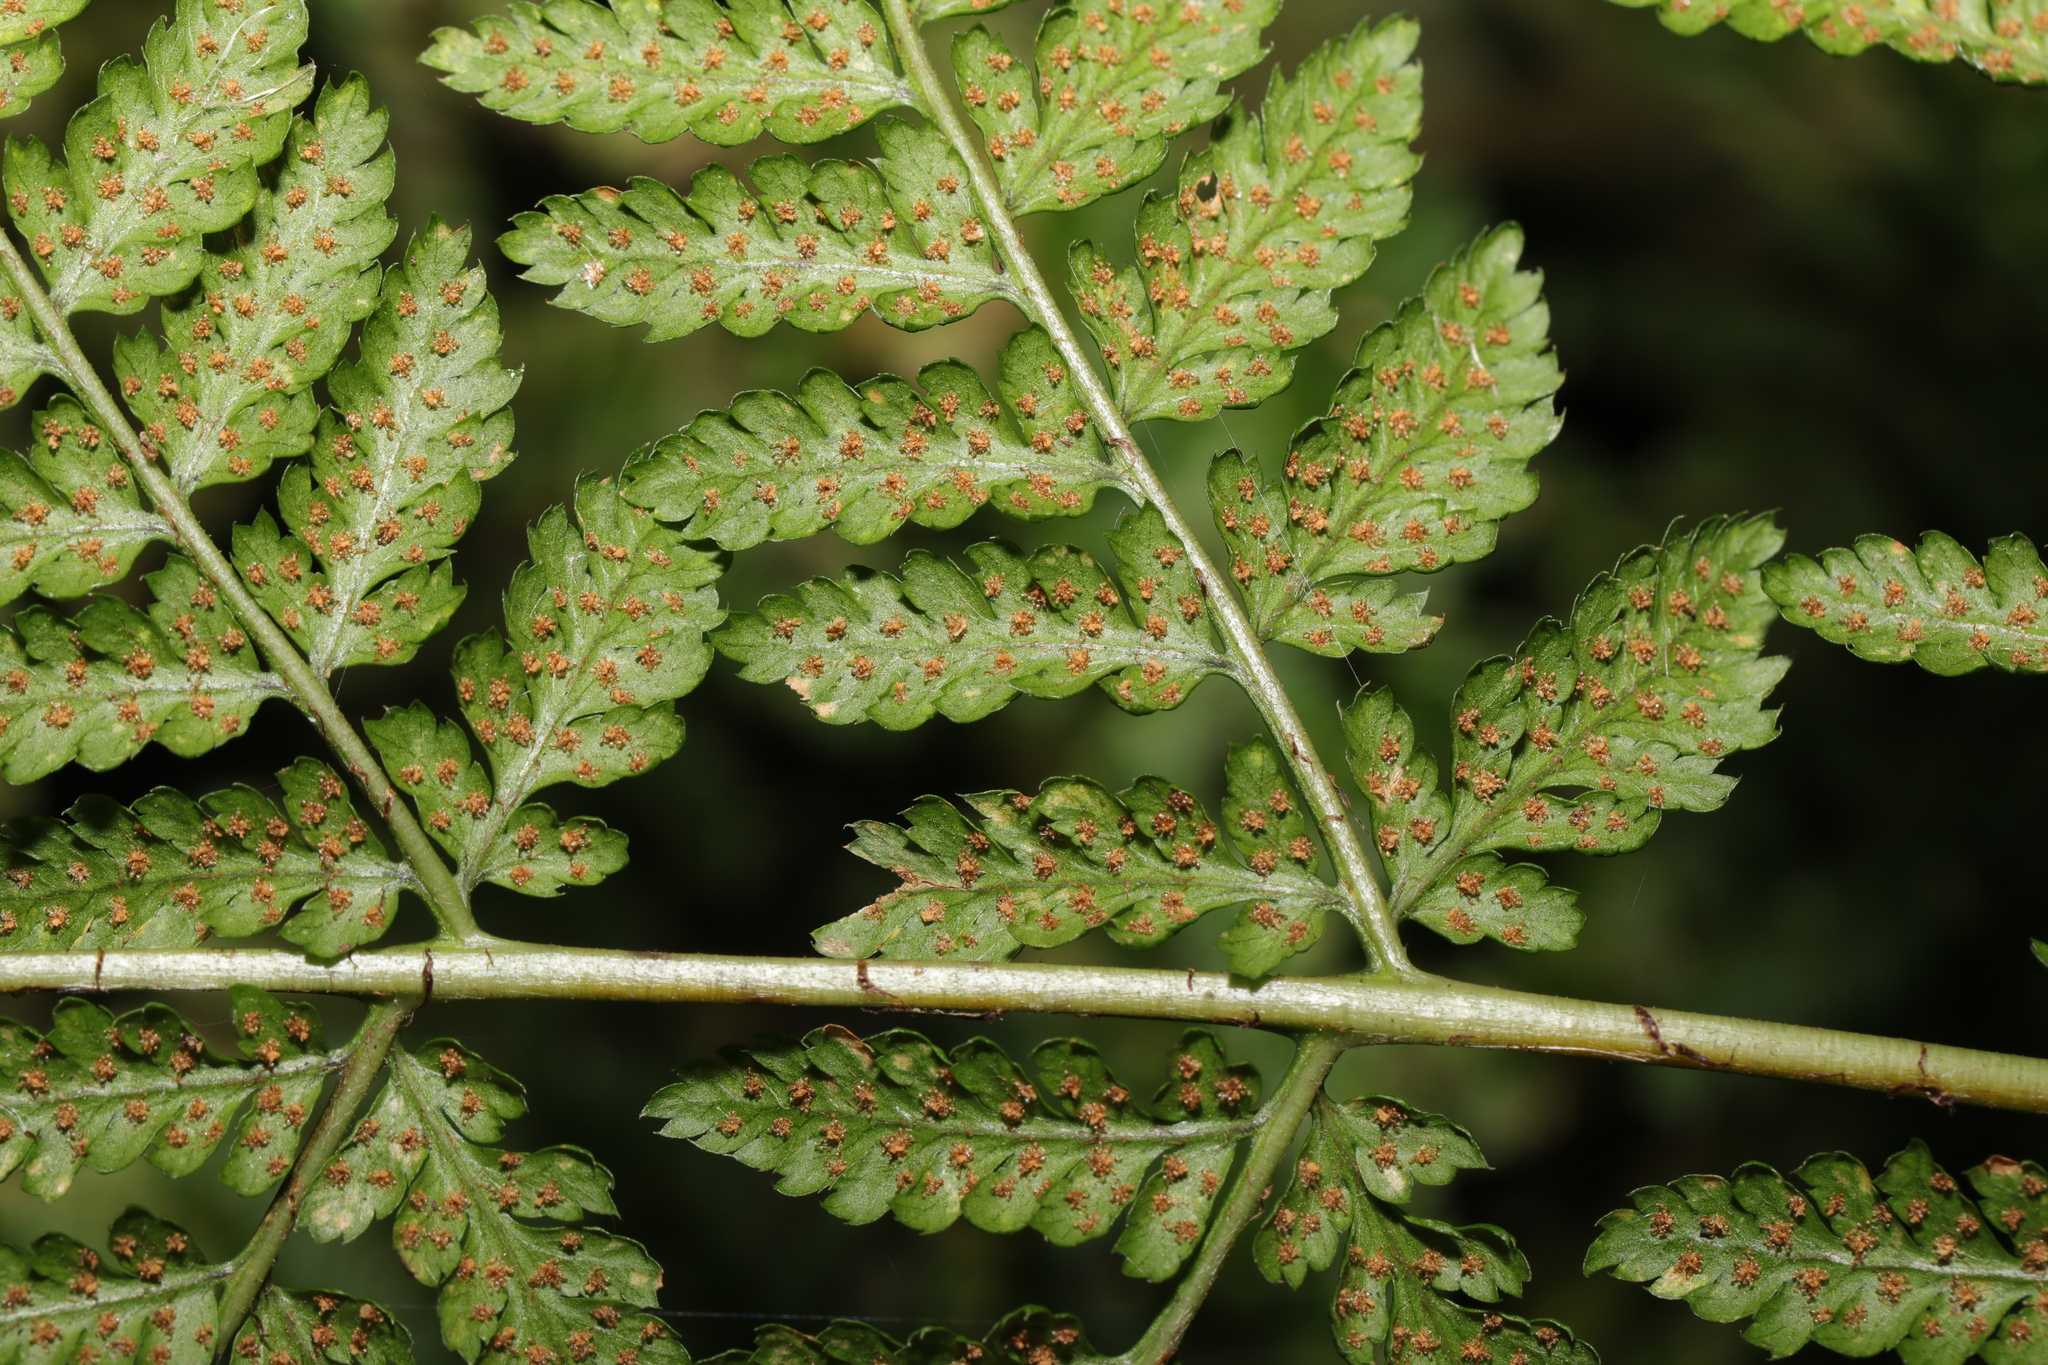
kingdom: Plantae
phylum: Tracheophyta
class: Polypodiopsida
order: Polypodiales
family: Dryopteridaceae
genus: Dryopteris
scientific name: Dryopteris dilatata
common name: Broad buckler-fern
